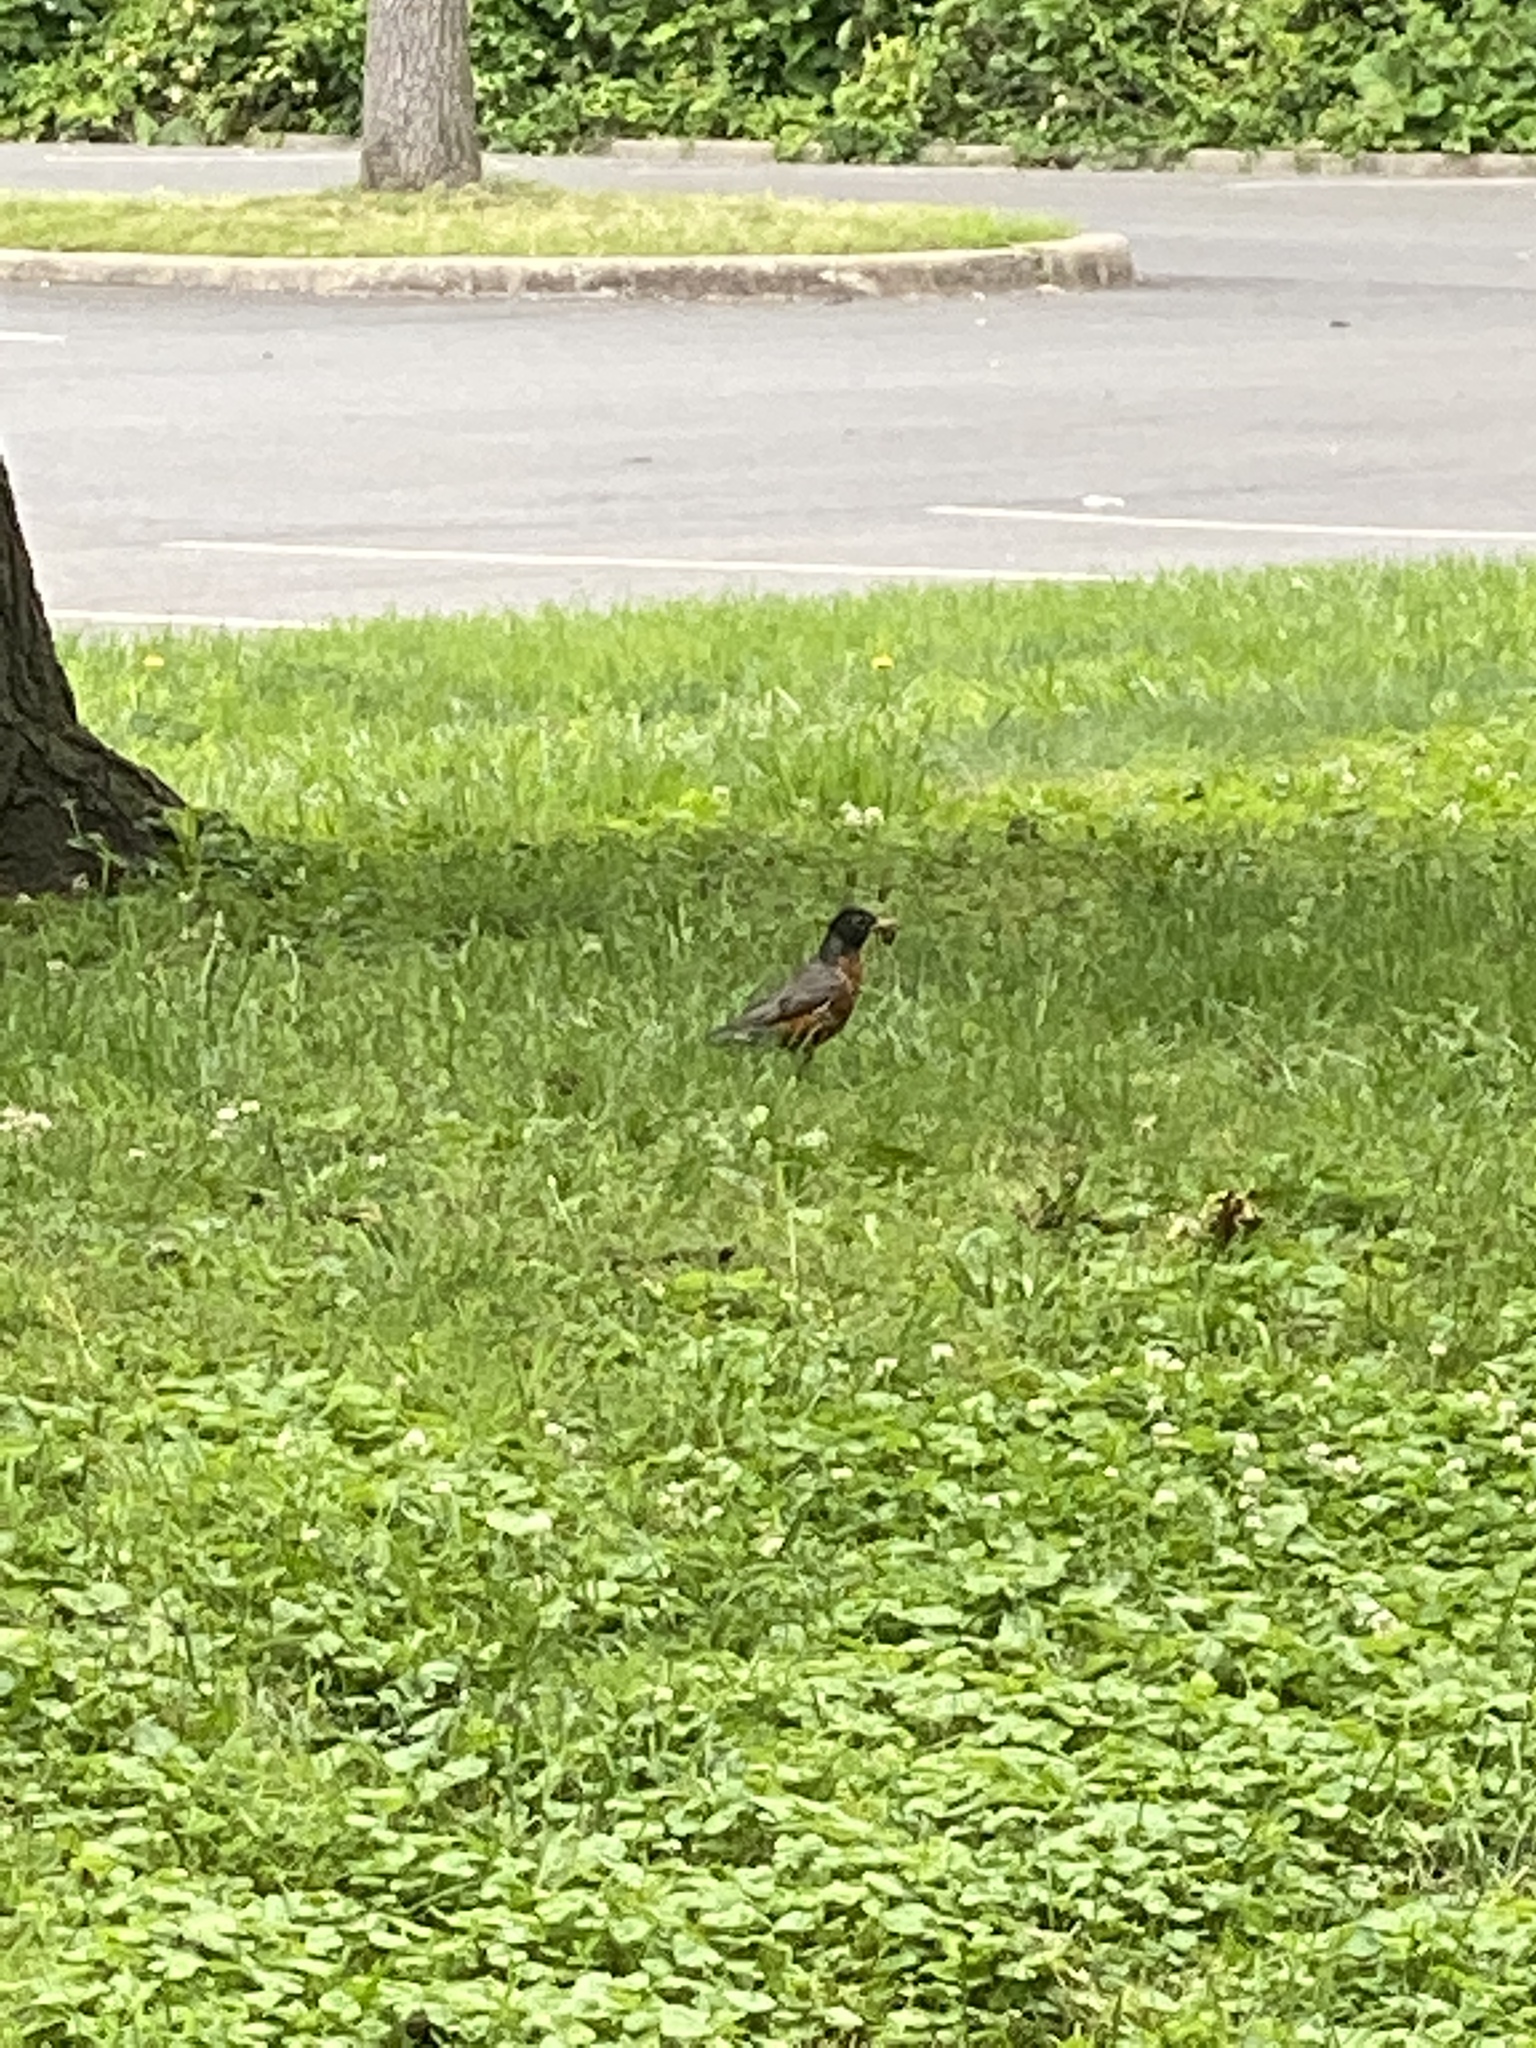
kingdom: Animalia
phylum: Chordata
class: Aves
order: Passeriformes
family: Turdidae
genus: Turdus
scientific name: Turdus migratorius
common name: American robin
